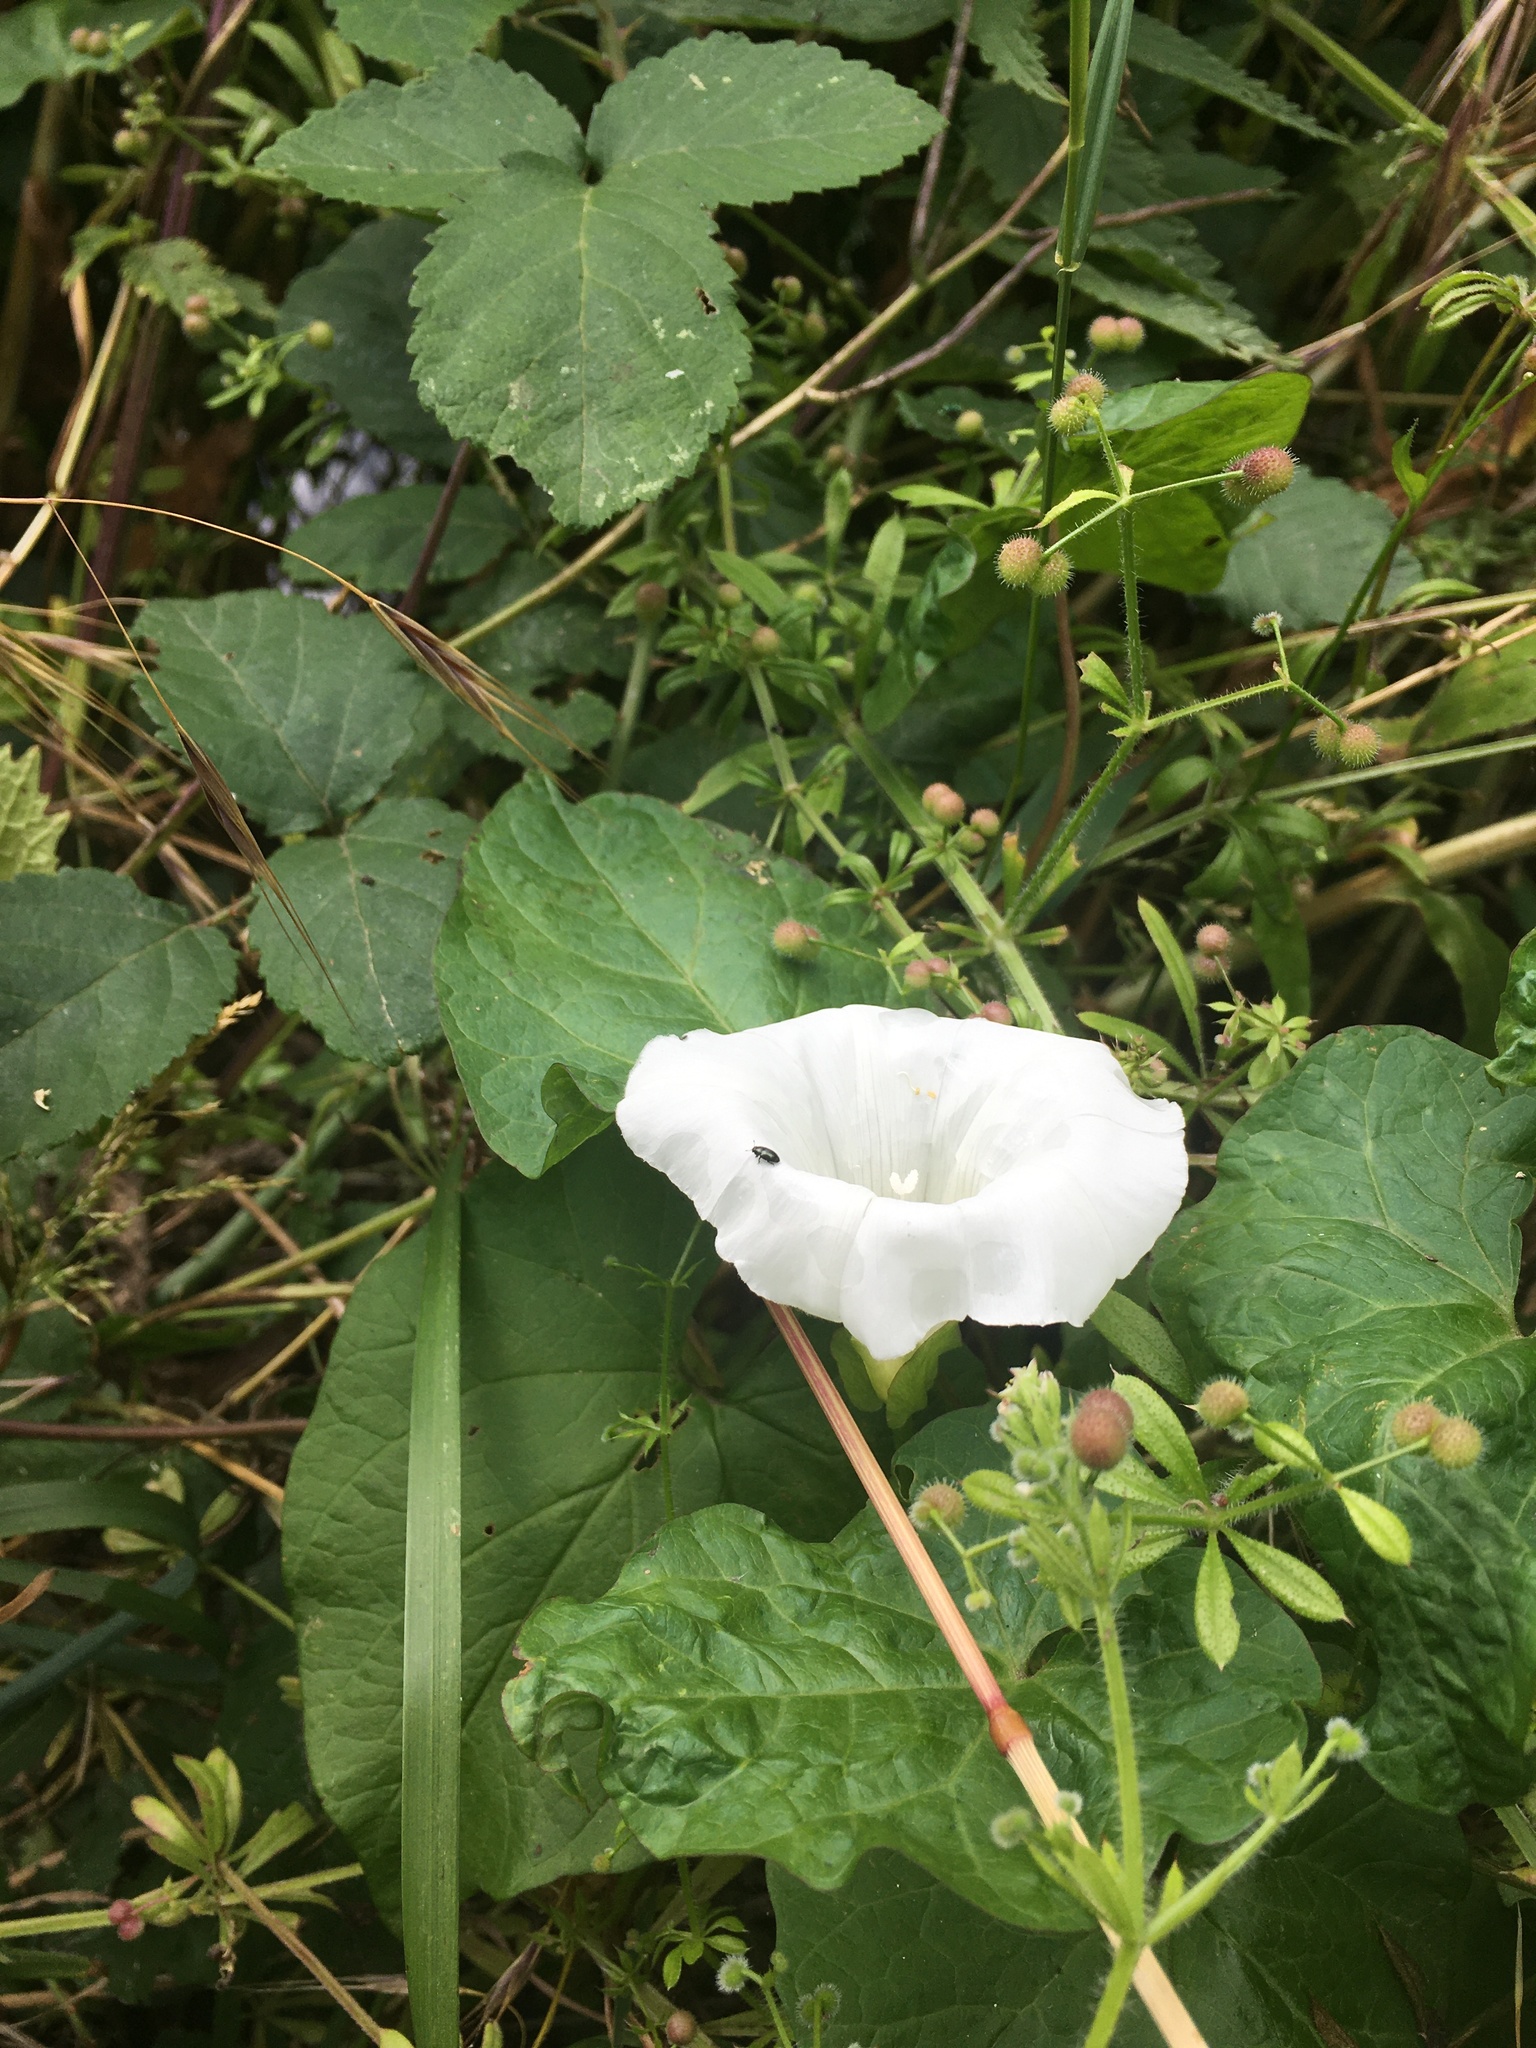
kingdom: Plantae
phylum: Tracheophyta
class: Magnoliopsida
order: Solanales
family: Convolvulaceae
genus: Calystegia
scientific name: Calystegia sepium
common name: Hedge bindweed
